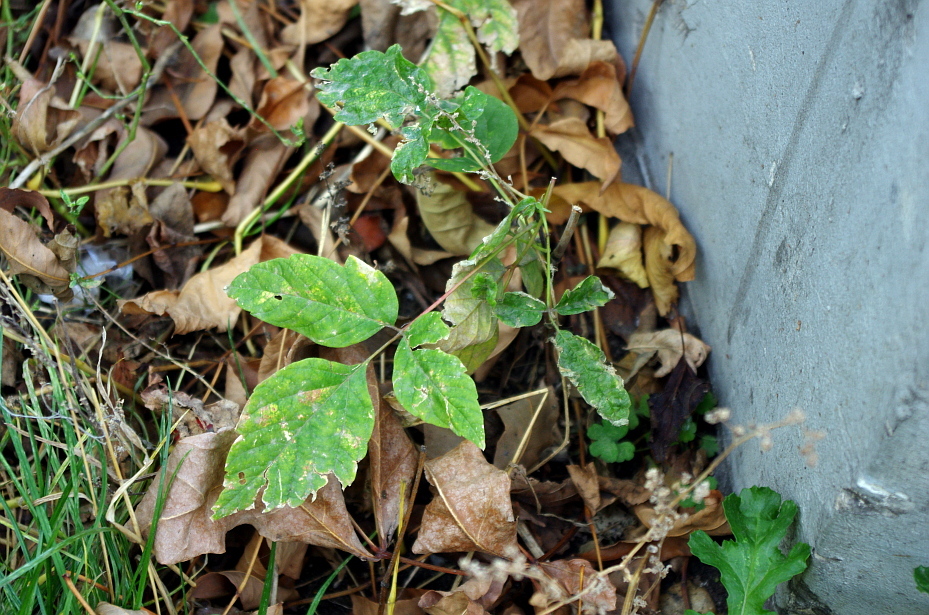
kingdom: Plantae
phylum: Tracheophyta
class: Magnoliopsida
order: Sapindales
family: Sapindaceae
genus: Acer
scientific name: Acer negundo
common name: Ashleaf maple
